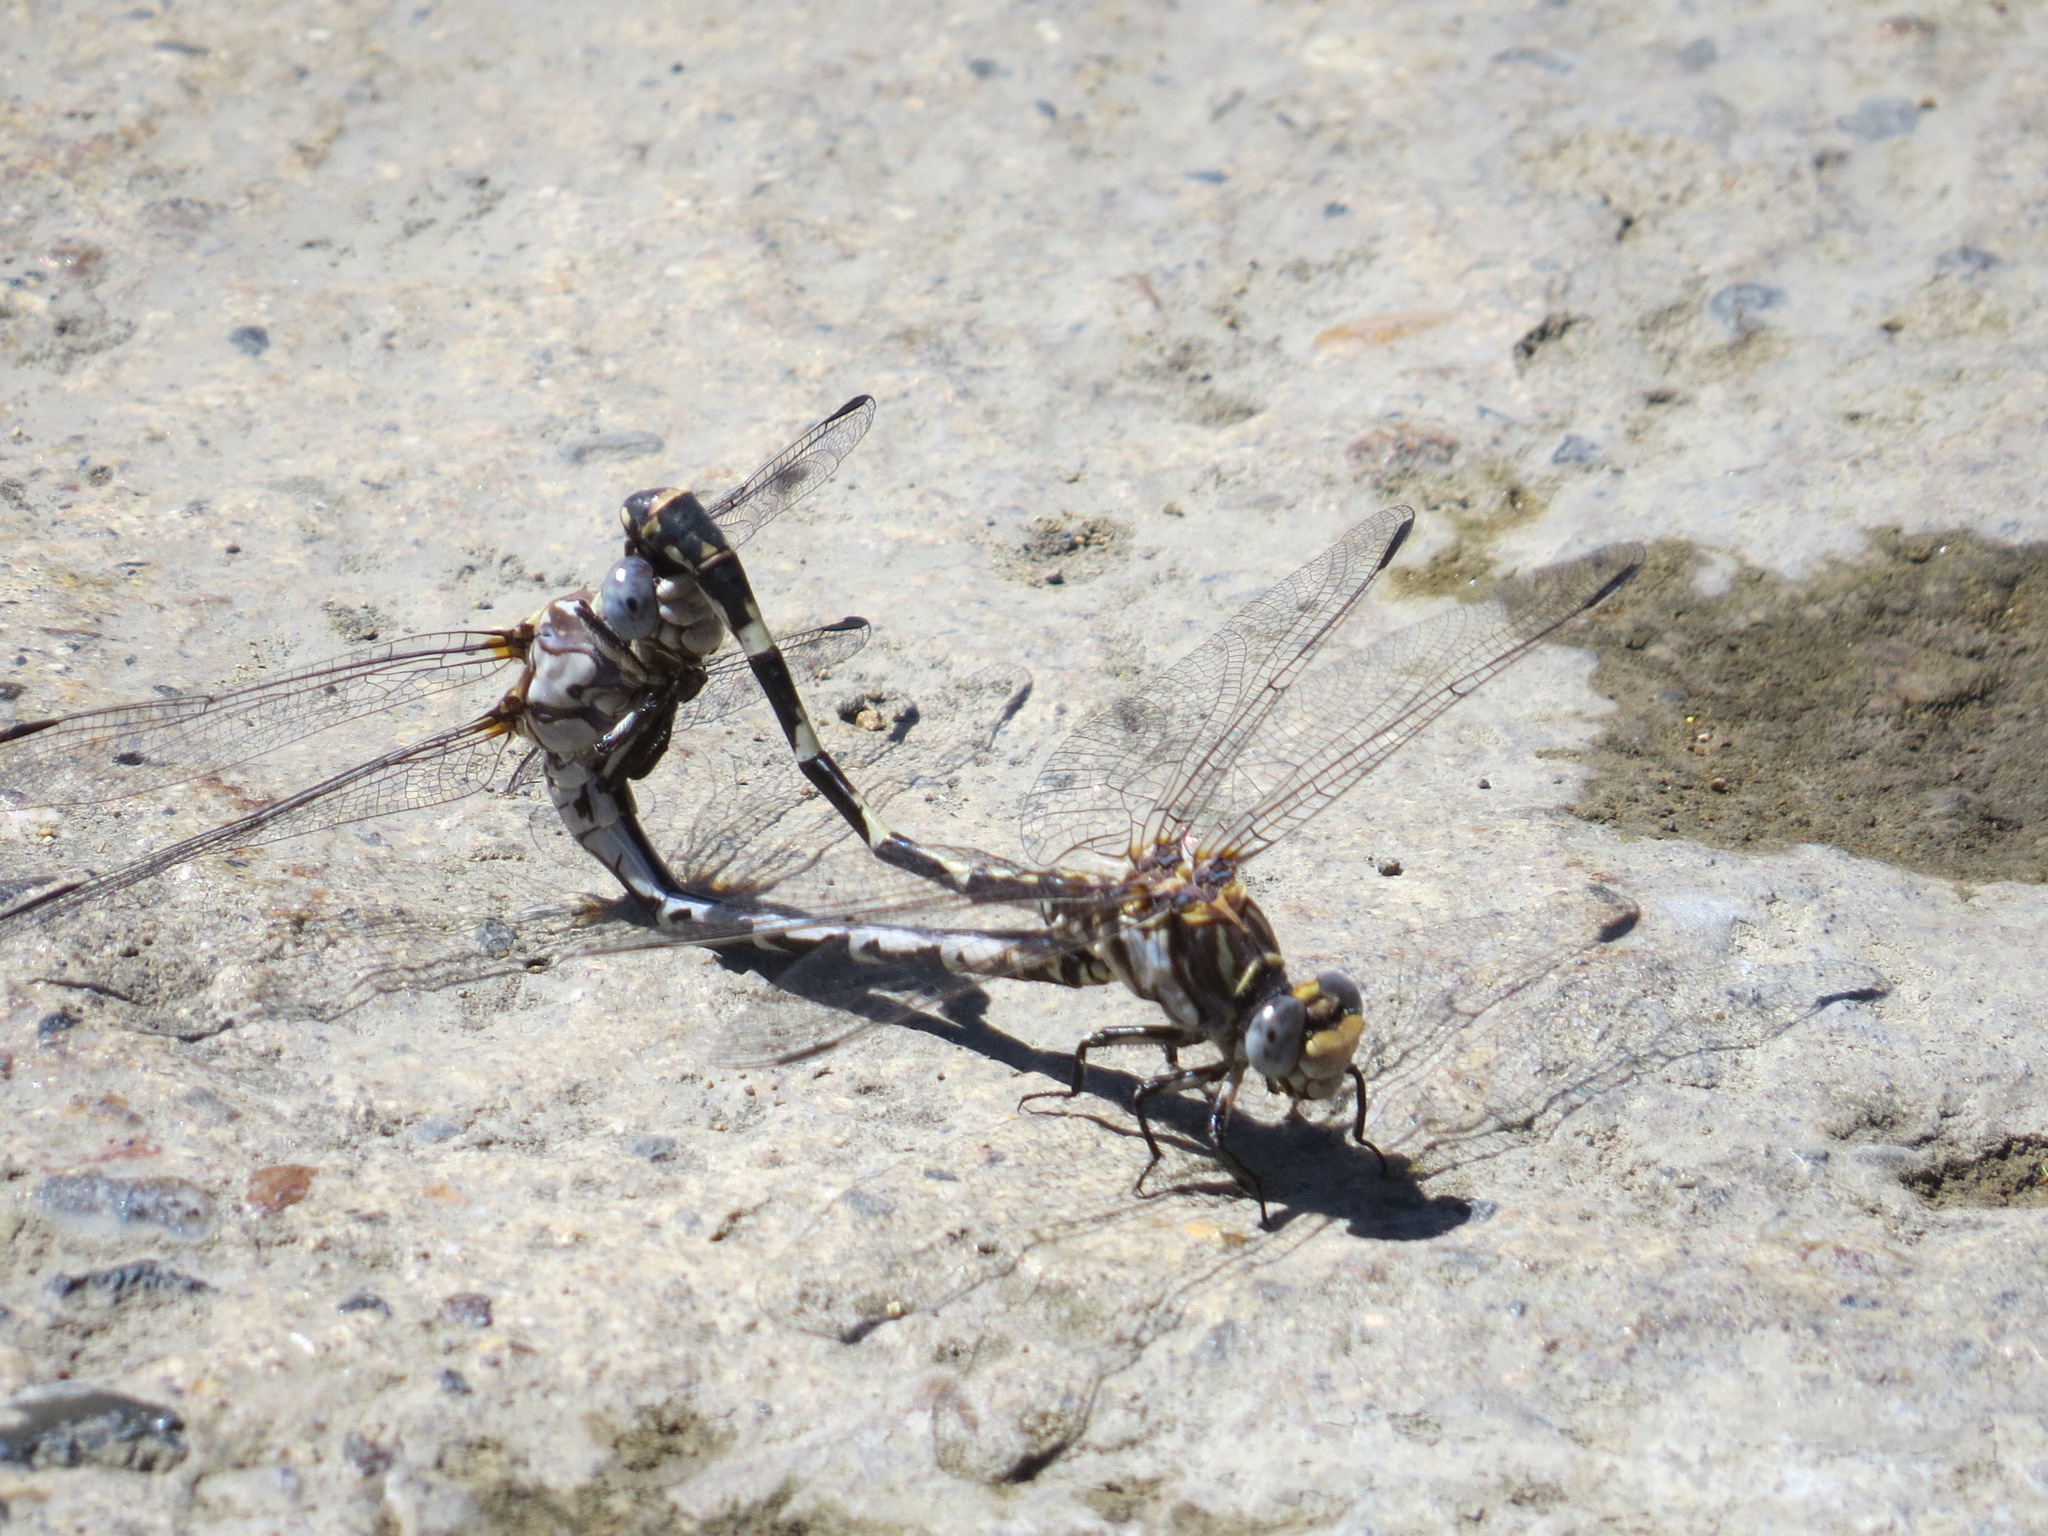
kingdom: Animalia
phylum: Arthropoda
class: Insecta
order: Odonata
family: Gomphidae
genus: Progomphus
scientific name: Progomphus borealis
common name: Gray sanddragon
